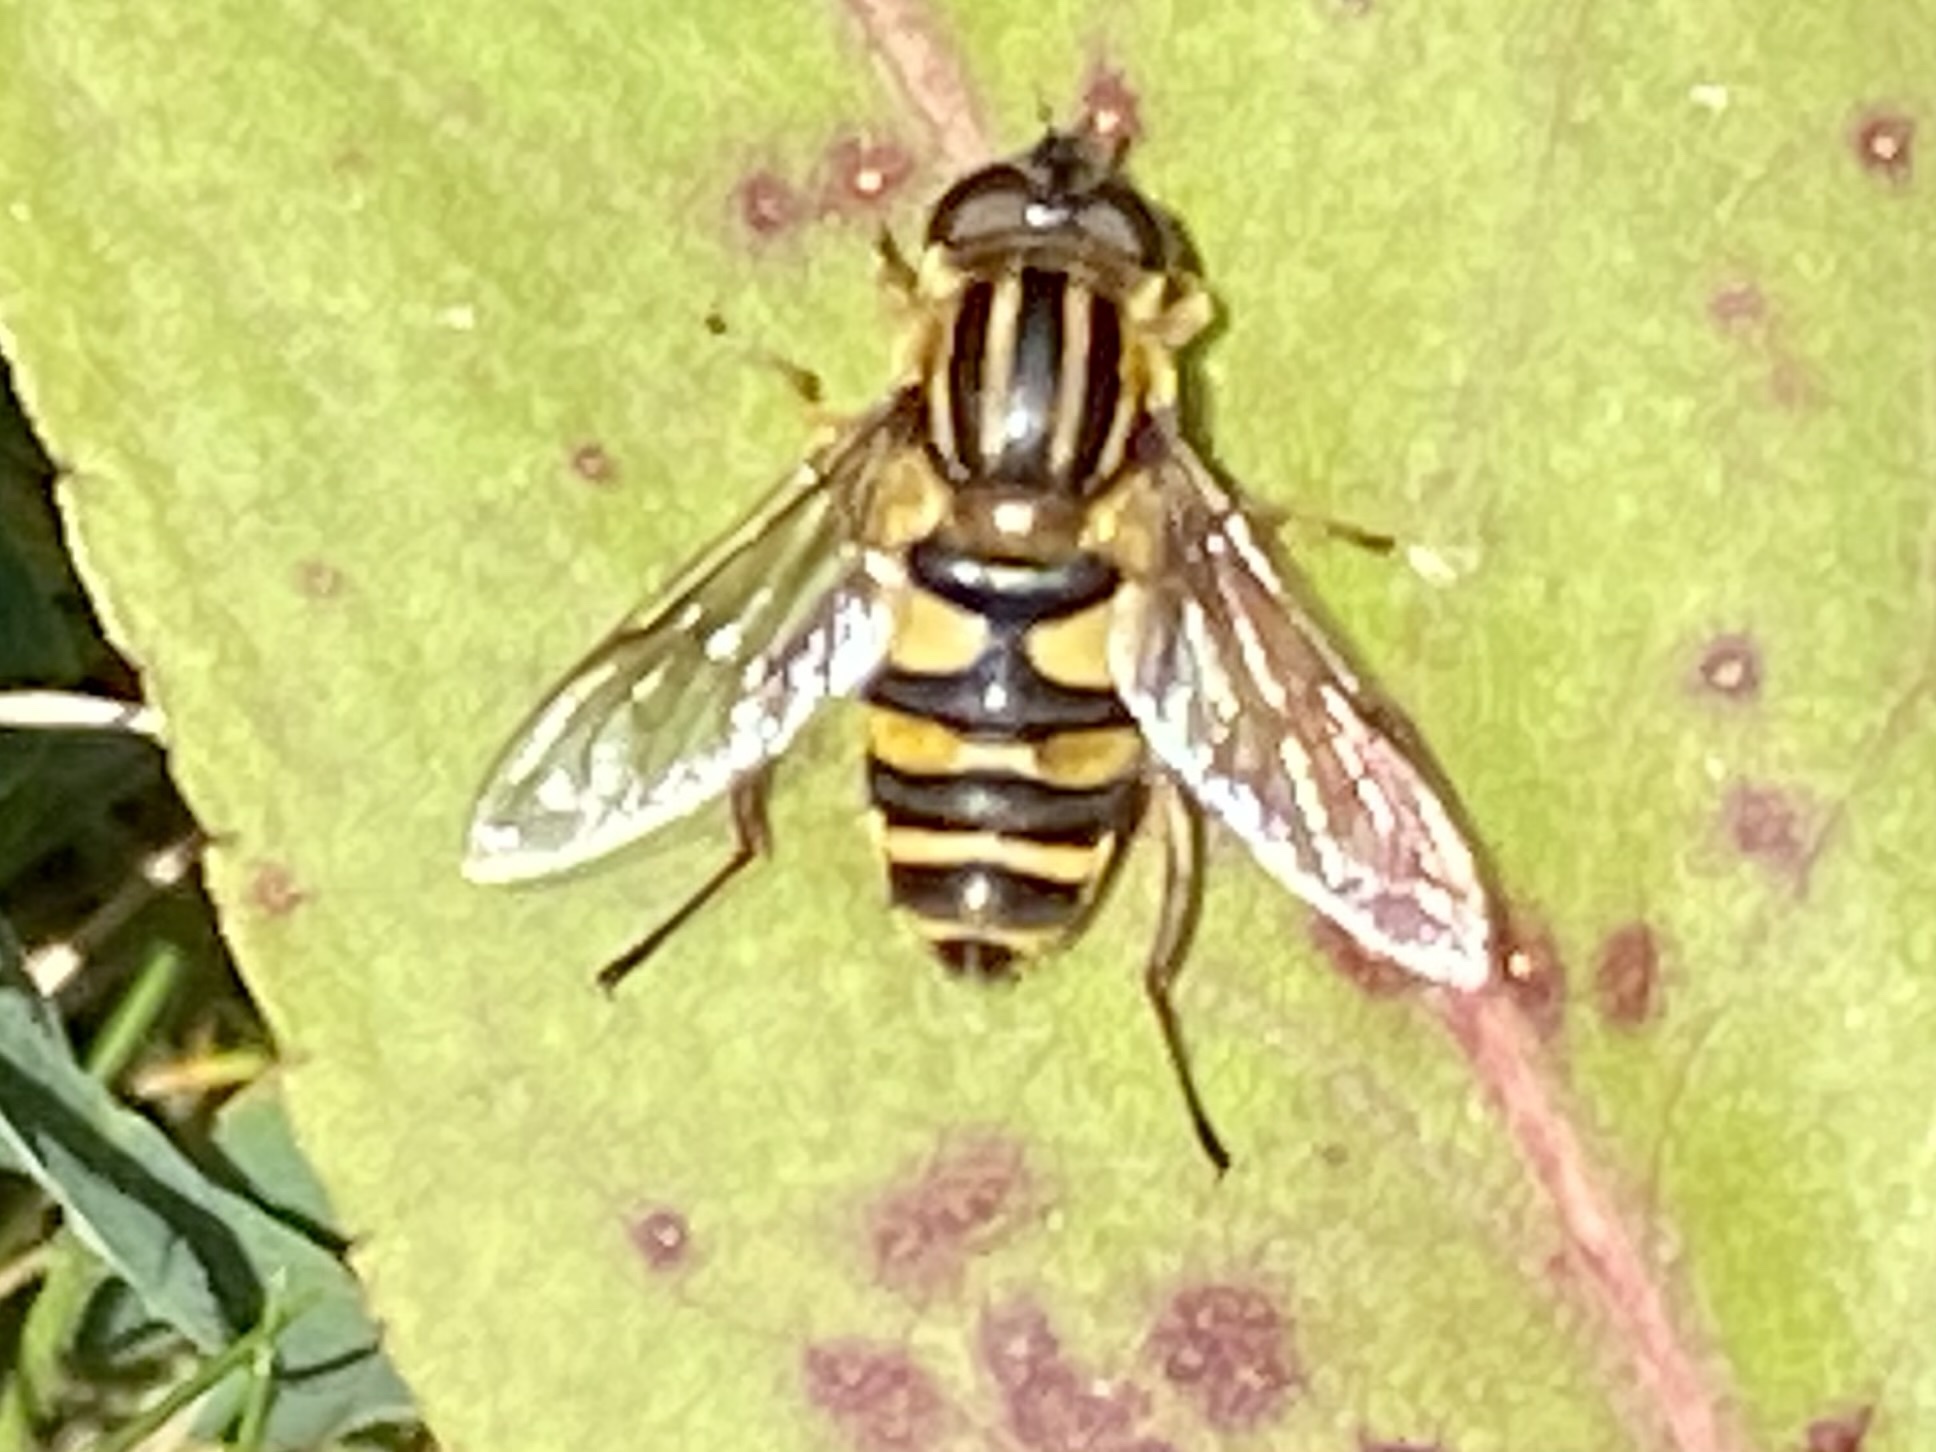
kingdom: Animalia
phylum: Arthropoda
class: Insecta
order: Diptera
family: Syrphidae
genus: Helophilus
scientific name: Helophilus fasciatus
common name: Narrow-headed marsh fly
